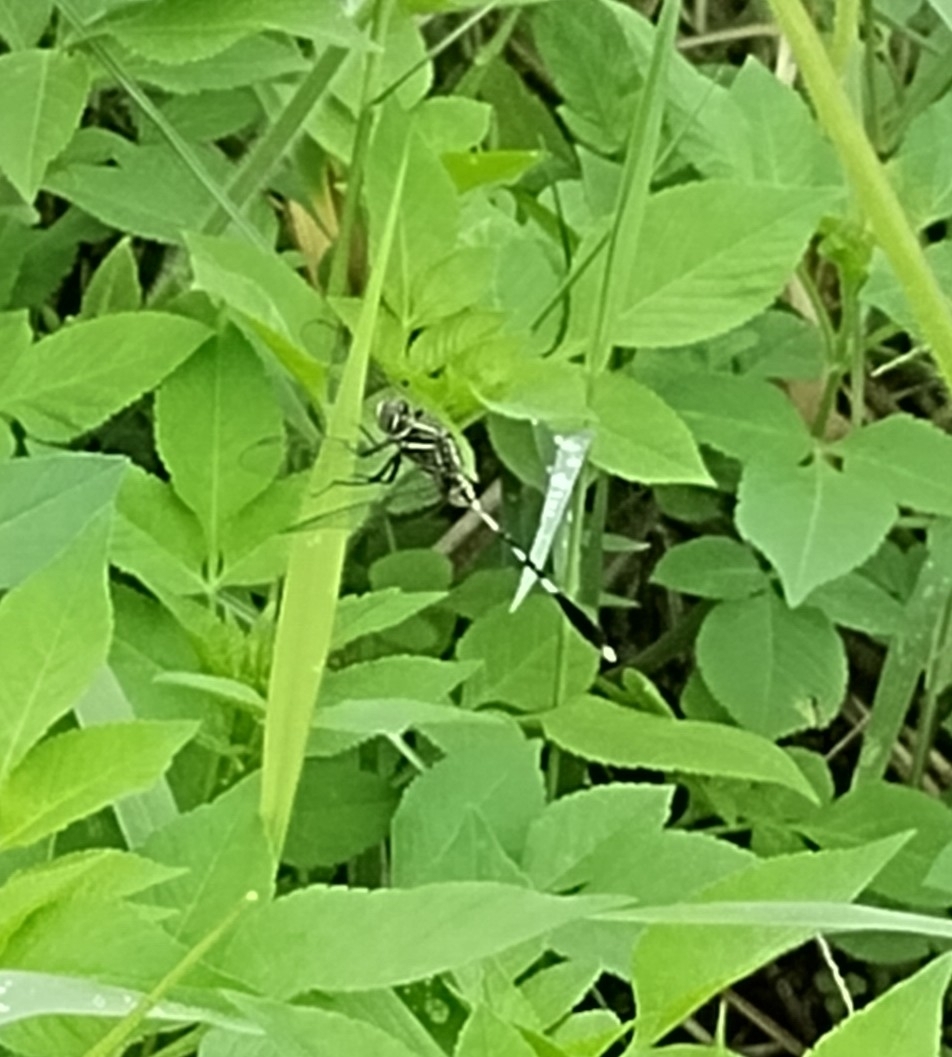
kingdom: Animalia
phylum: Arthropoda
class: Insecta
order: Odonata
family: Libellulidae
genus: Orthetrum
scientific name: Orthetrum sabina
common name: Slender skimmer
